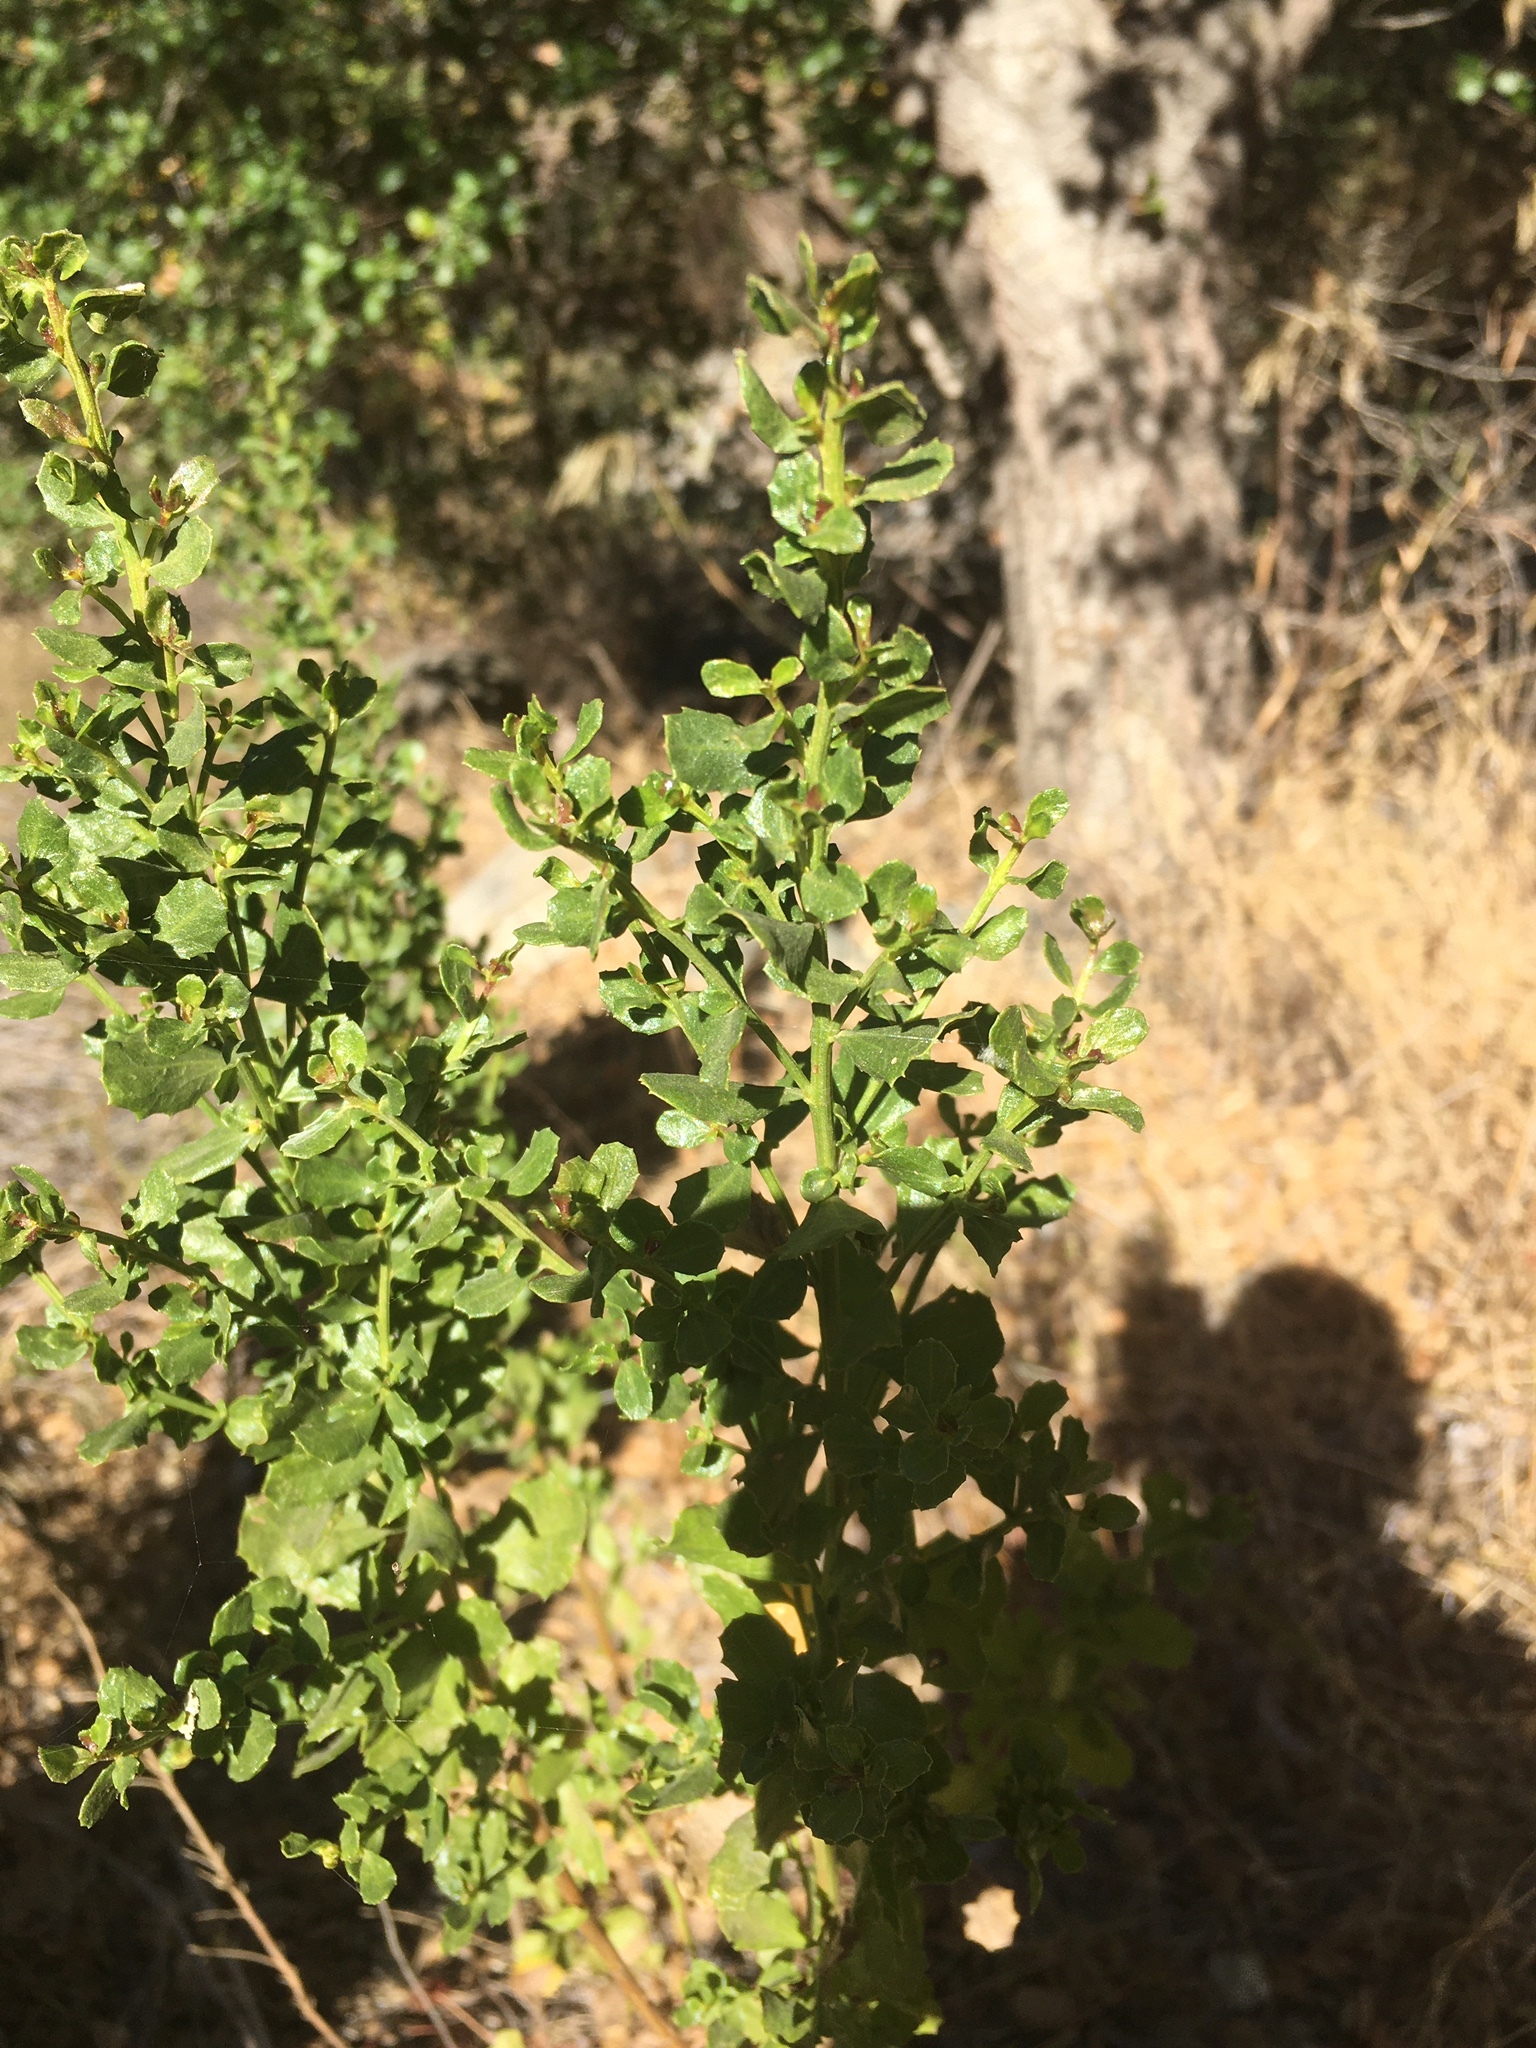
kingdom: Plantae
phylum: Tracheophyta
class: Magnoliopsida
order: Asterales
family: Asteraceae
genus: Baccharis
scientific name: Baccharis pilularis
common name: Coyotebrush
